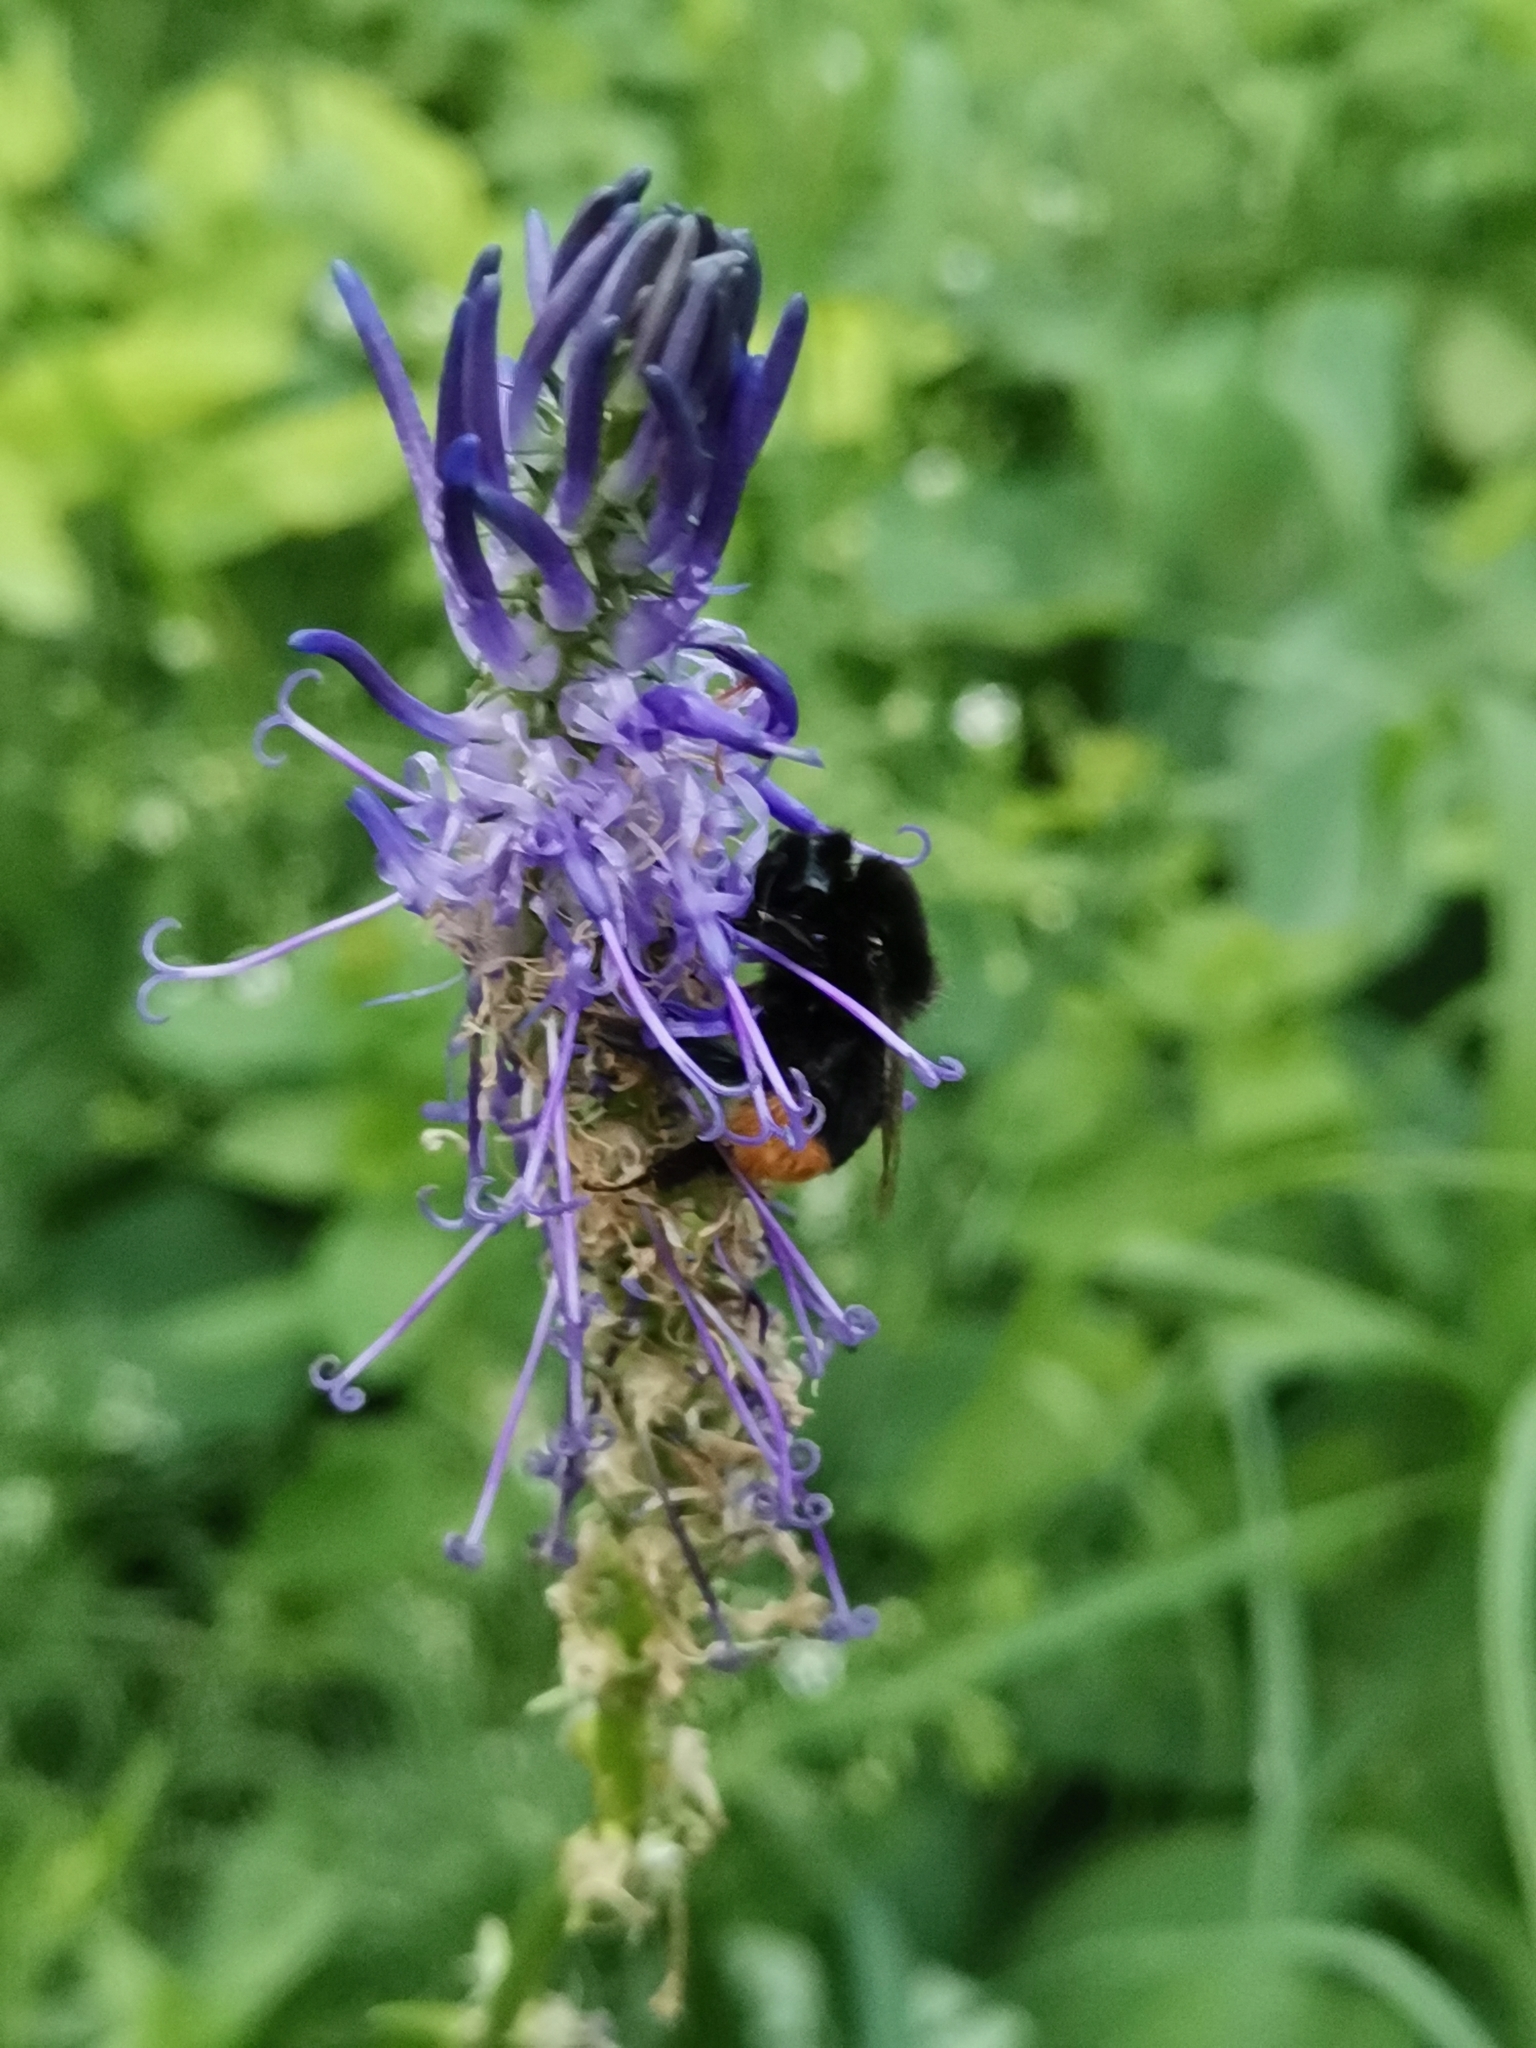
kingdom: Plantae
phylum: Tracheophyta
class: Magnoliopsida
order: Asterales
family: Campanulaceae
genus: Phyteuma
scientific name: Phyteuma persicifolium
